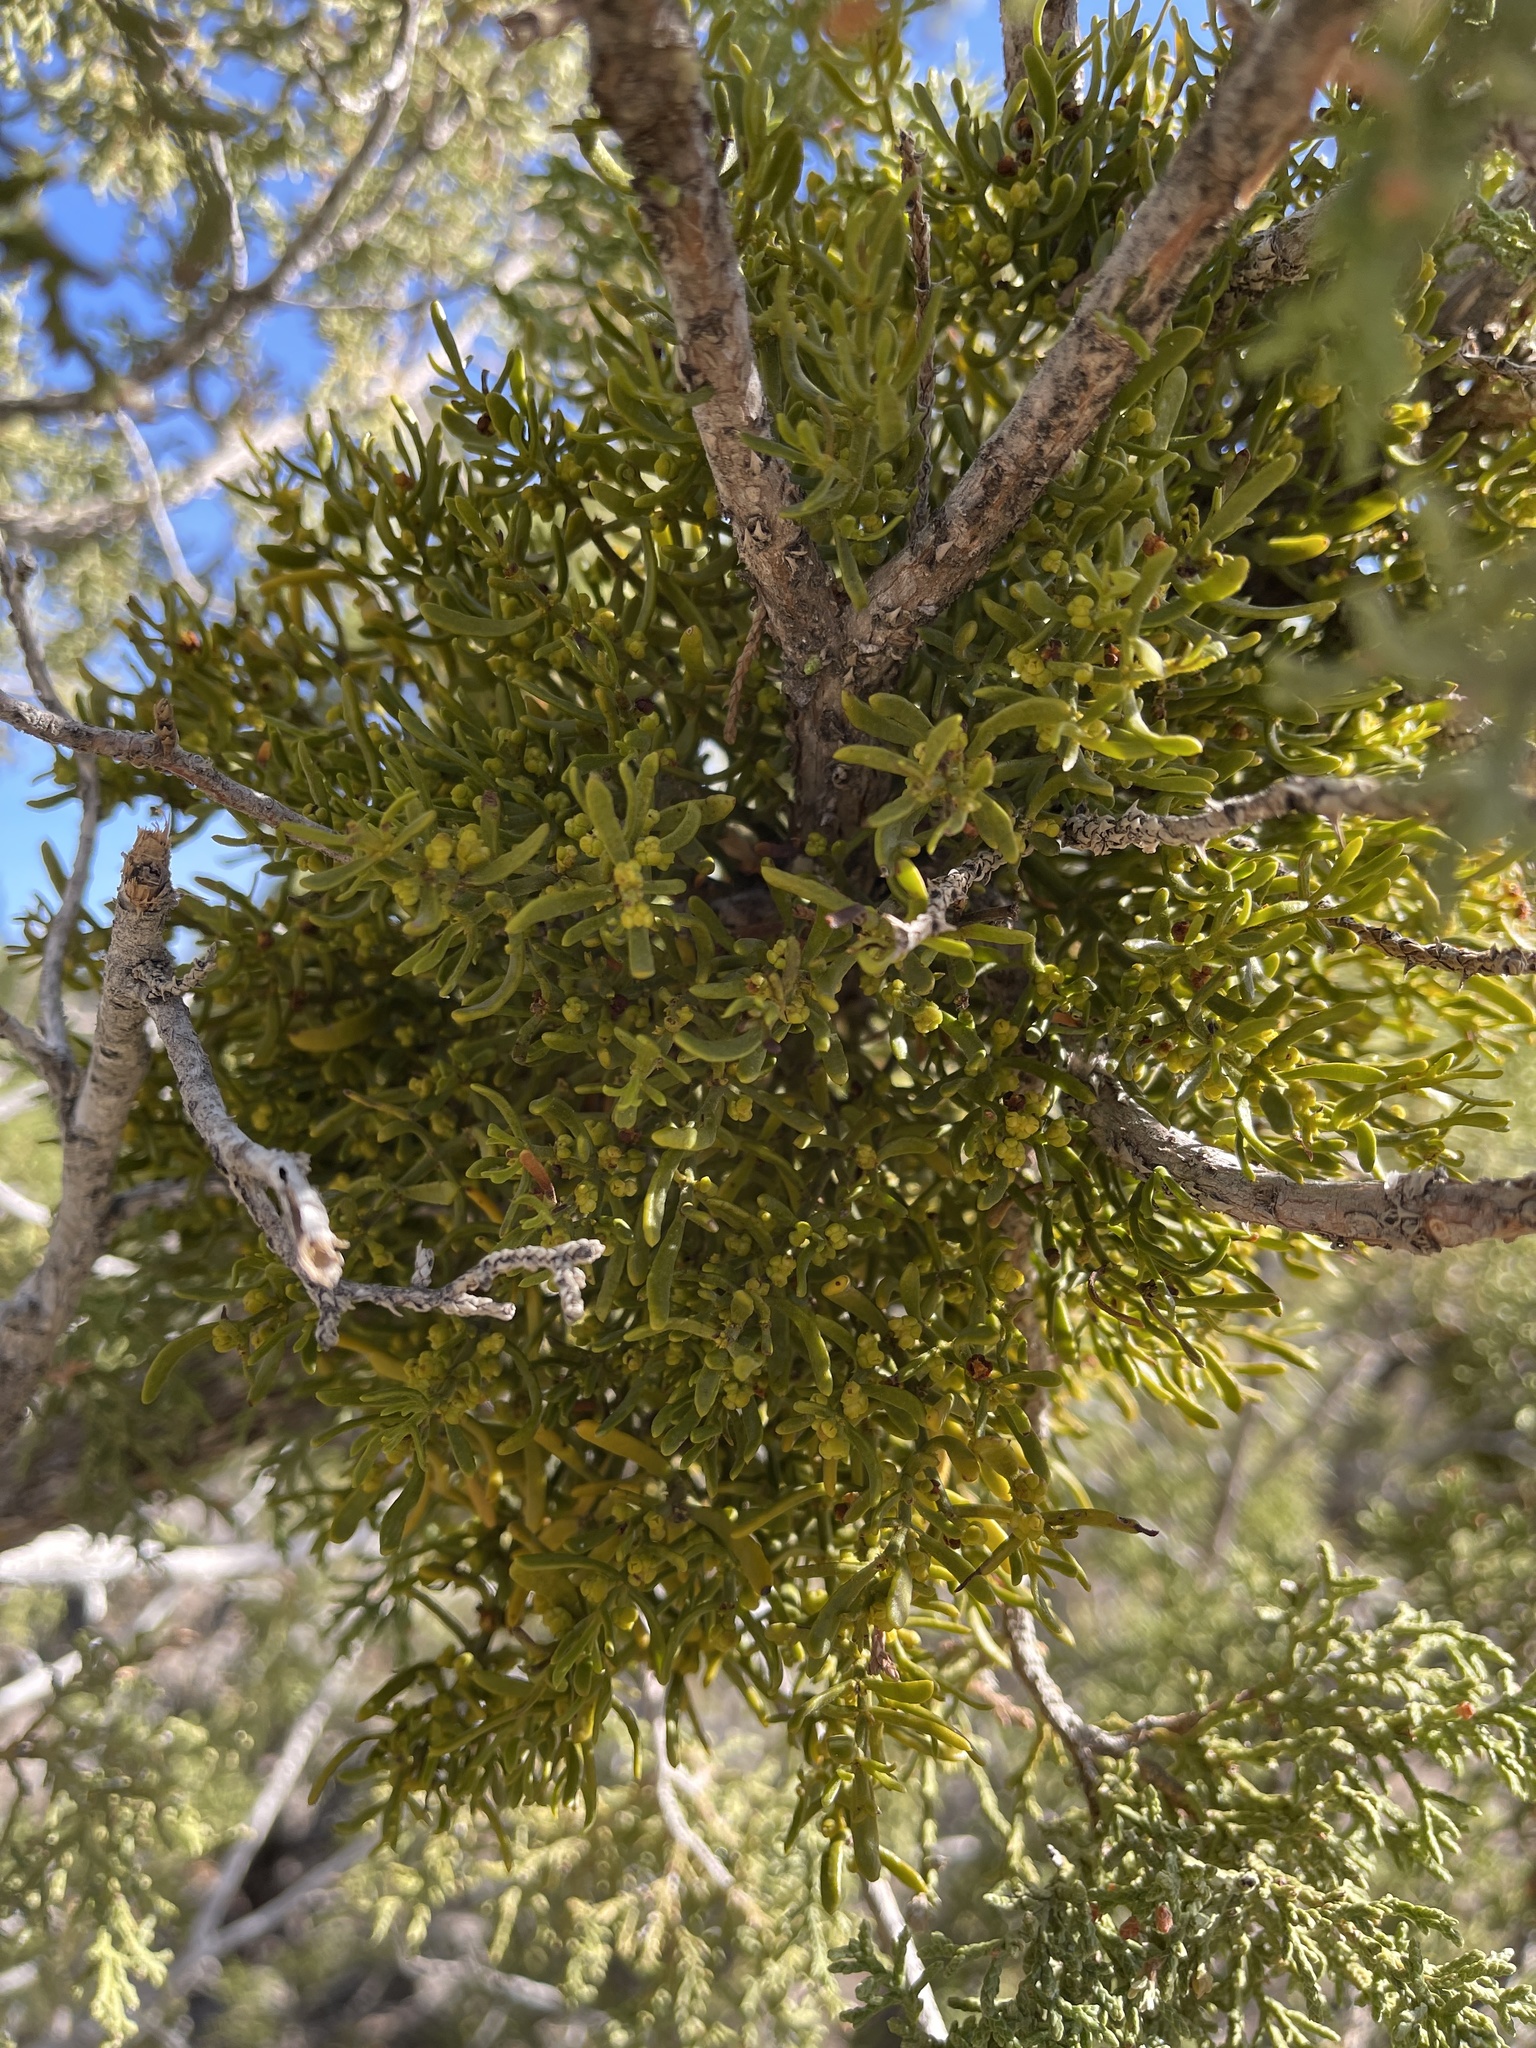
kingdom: Plantae
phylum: Tracheophyta
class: Magnoliopsida
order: Santalales
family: Viscaceae
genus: Phoradendron
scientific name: Phoradendron hawksworthii
